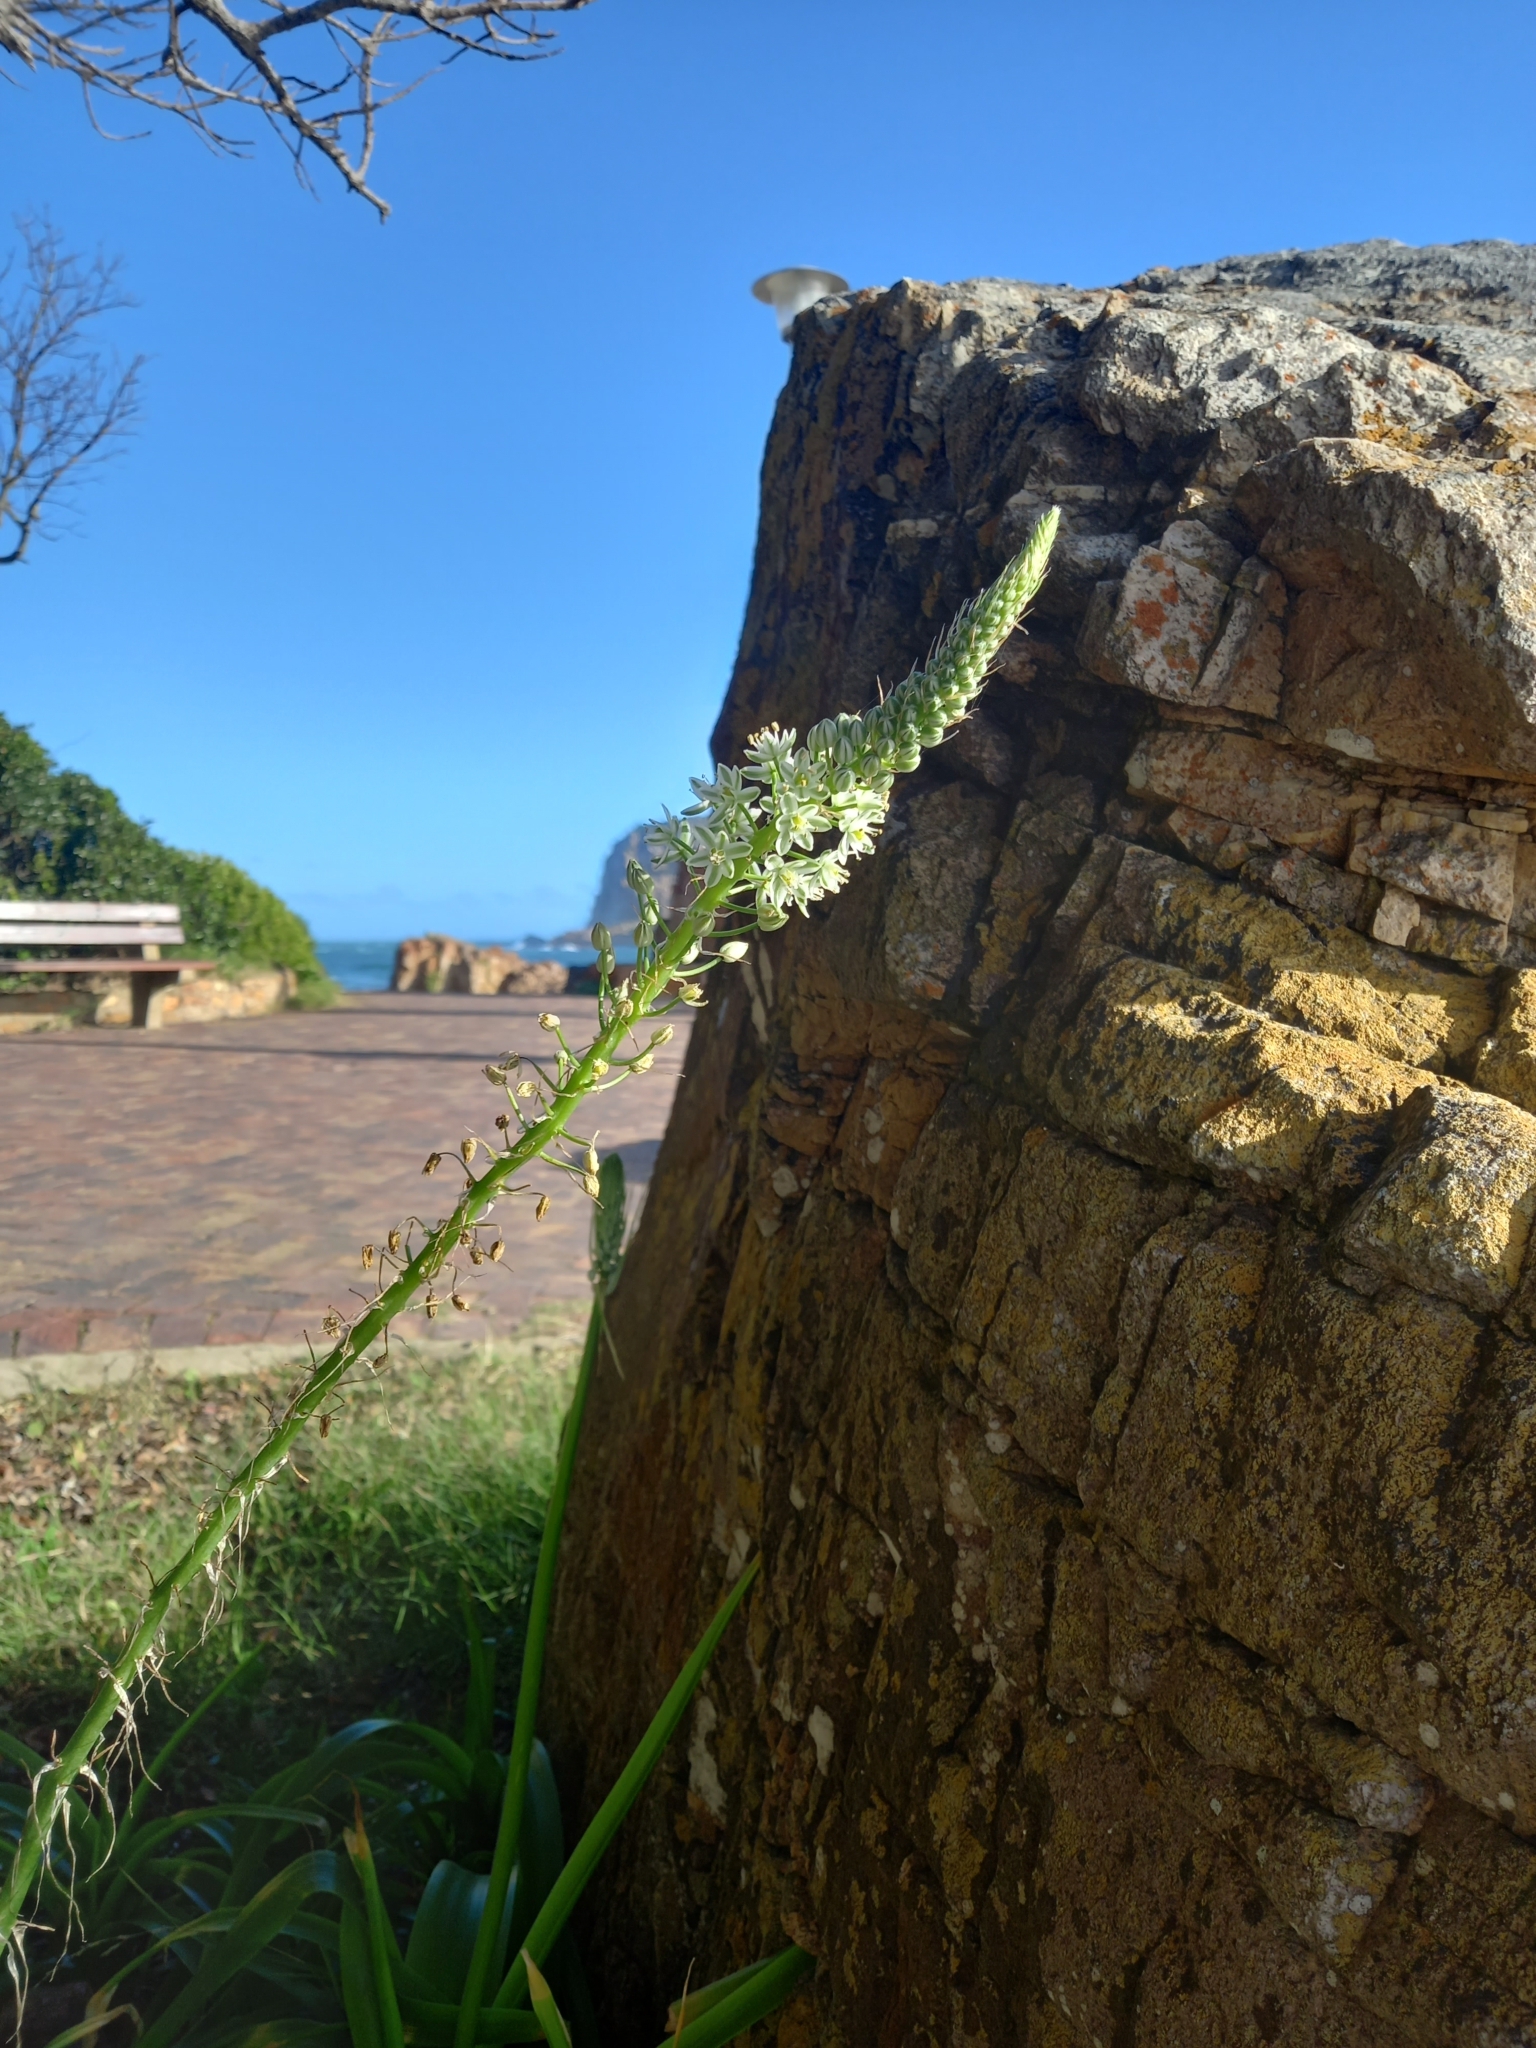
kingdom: Plantae
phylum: Tracheophyta
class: Liliopsida
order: Asparagales
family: Asparagaceae
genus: Albuca
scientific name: Albuca bracteata
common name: Sea-onion
